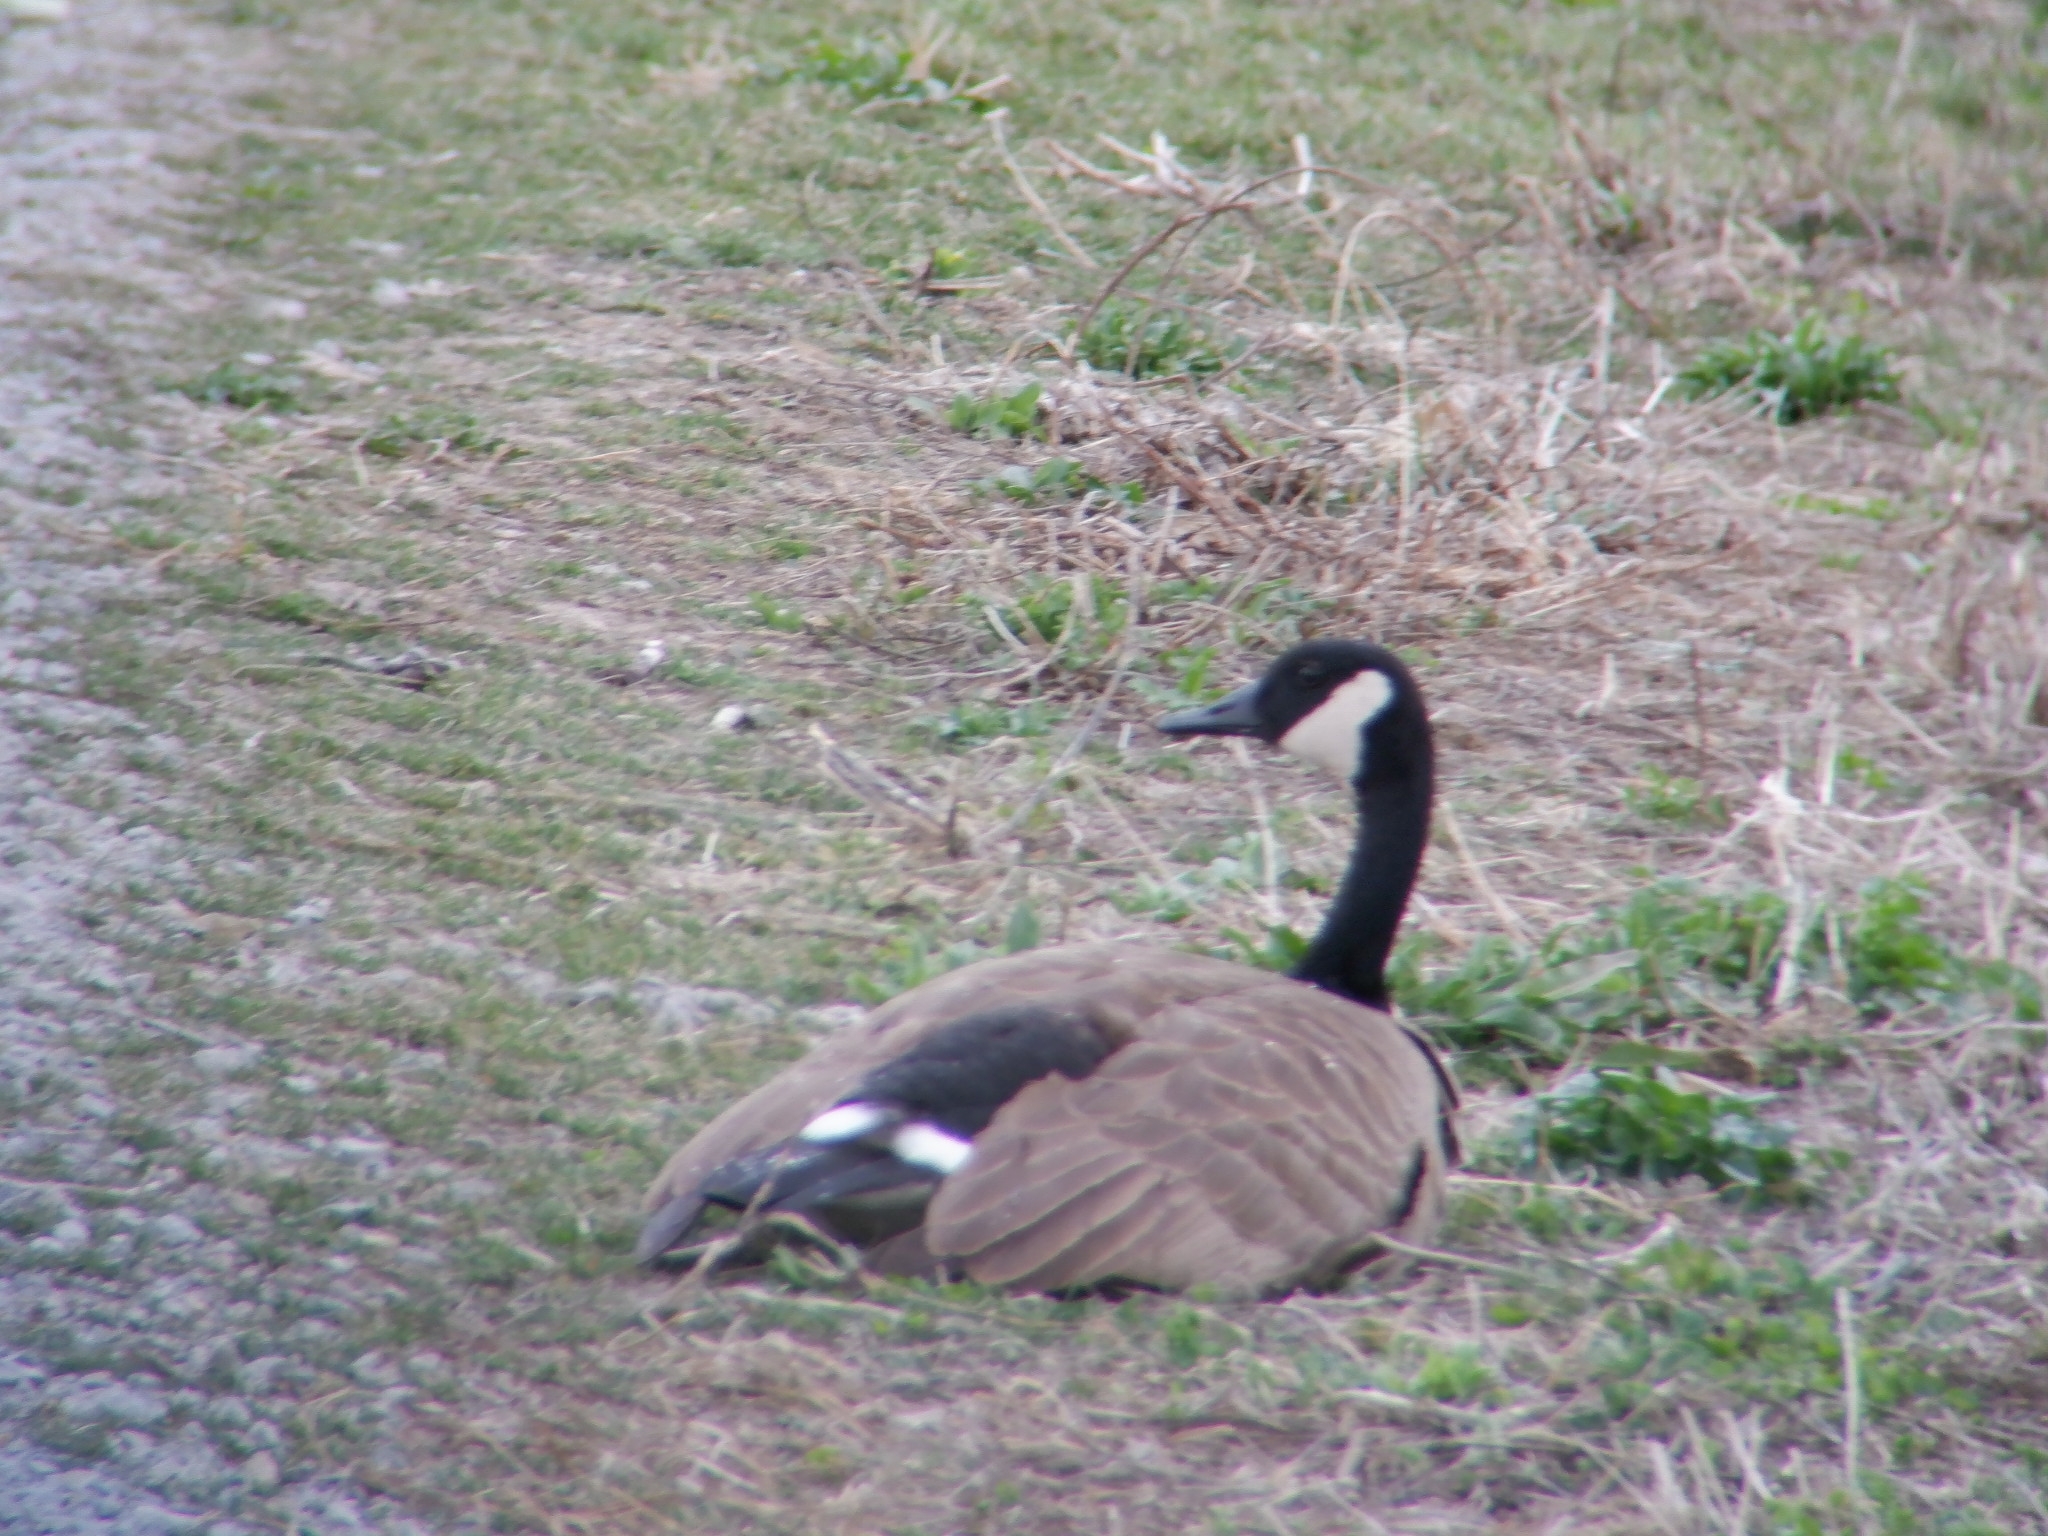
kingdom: Animalia
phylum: Chordata
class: Aves
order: Anseriformes
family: Anatidae
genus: Branta
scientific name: Branta canadensis
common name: Canada goose
